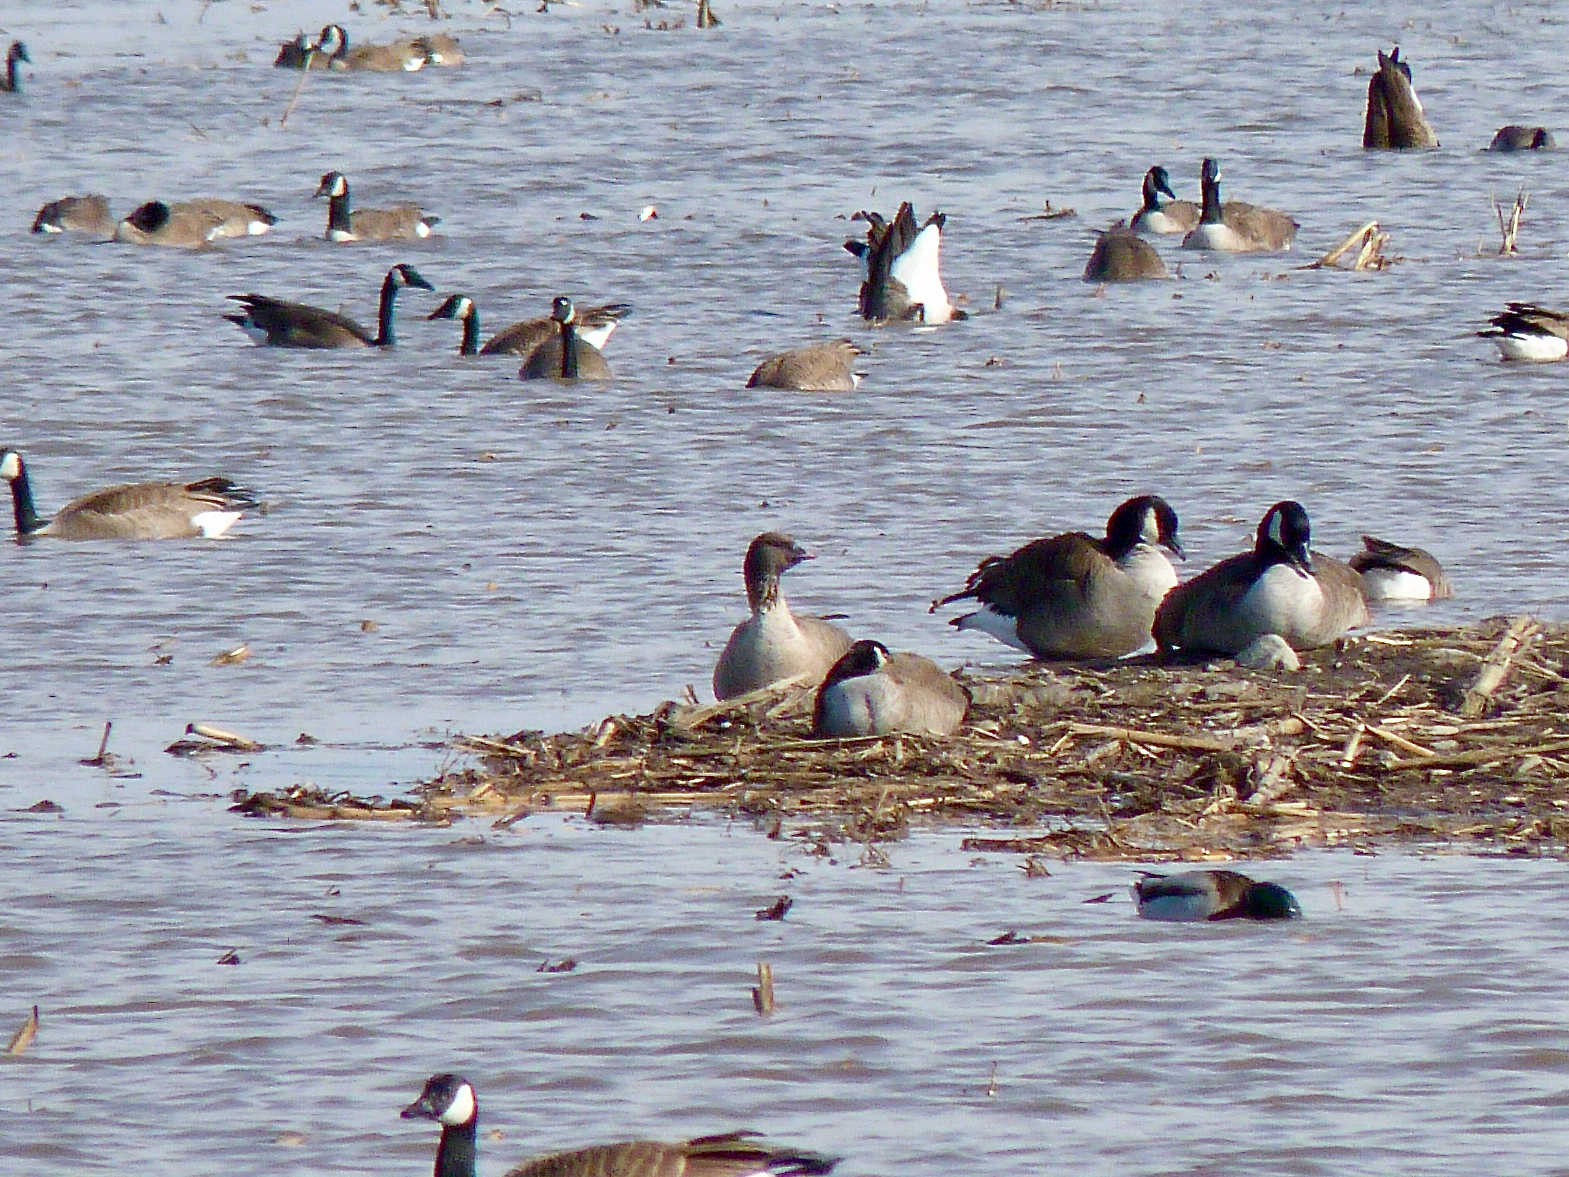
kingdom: Animalia
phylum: Chordata
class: Aves
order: Anseriformes
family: Anatidae
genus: Anser
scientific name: Anser brachyrhynchus
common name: Pink-footed goose
